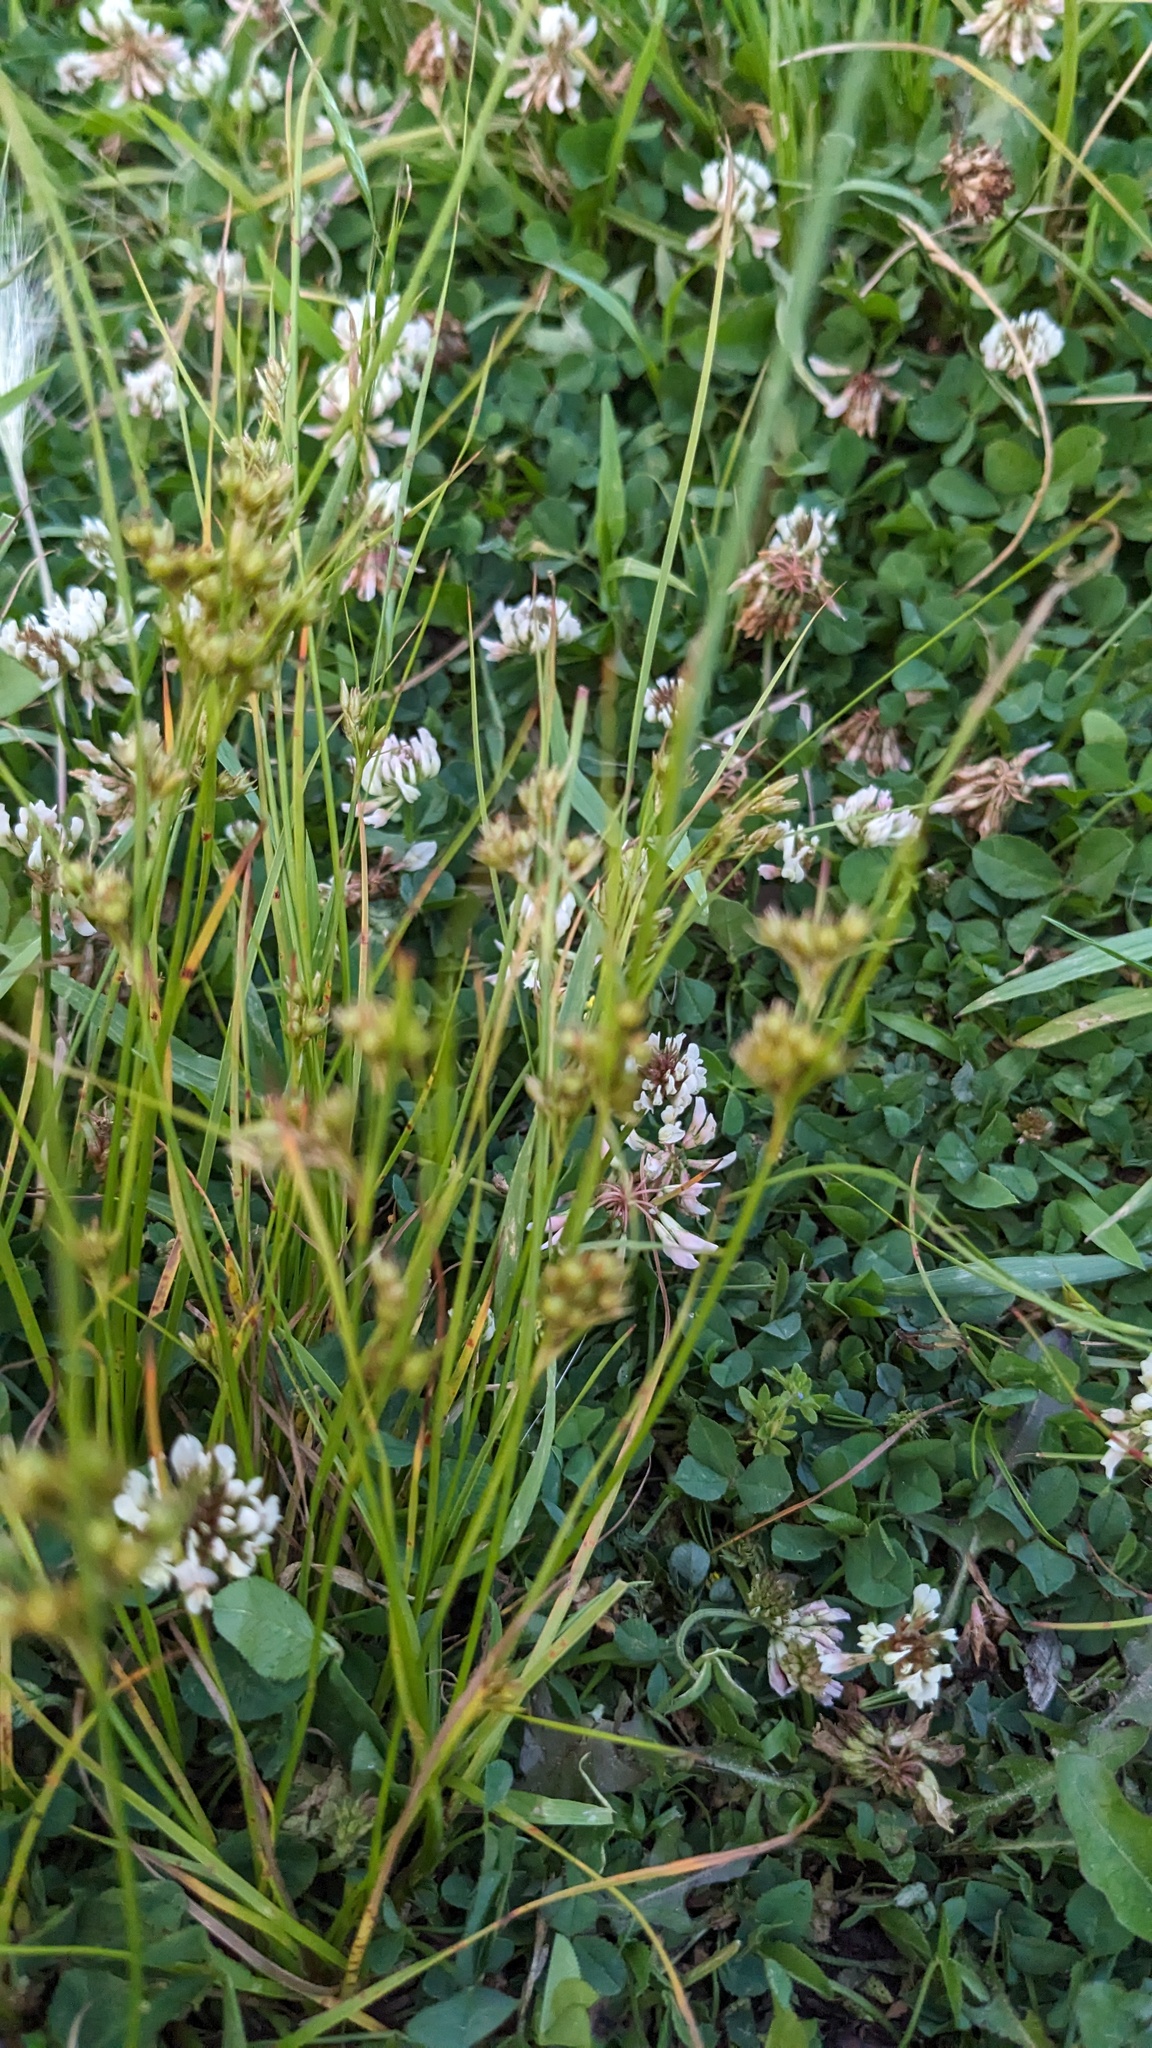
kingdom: Plantae
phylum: Tracheophyta
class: Magnoliopsida
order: Fabales
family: Fabaceae
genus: Trifolium
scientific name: Trifolium repens
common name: White clover
